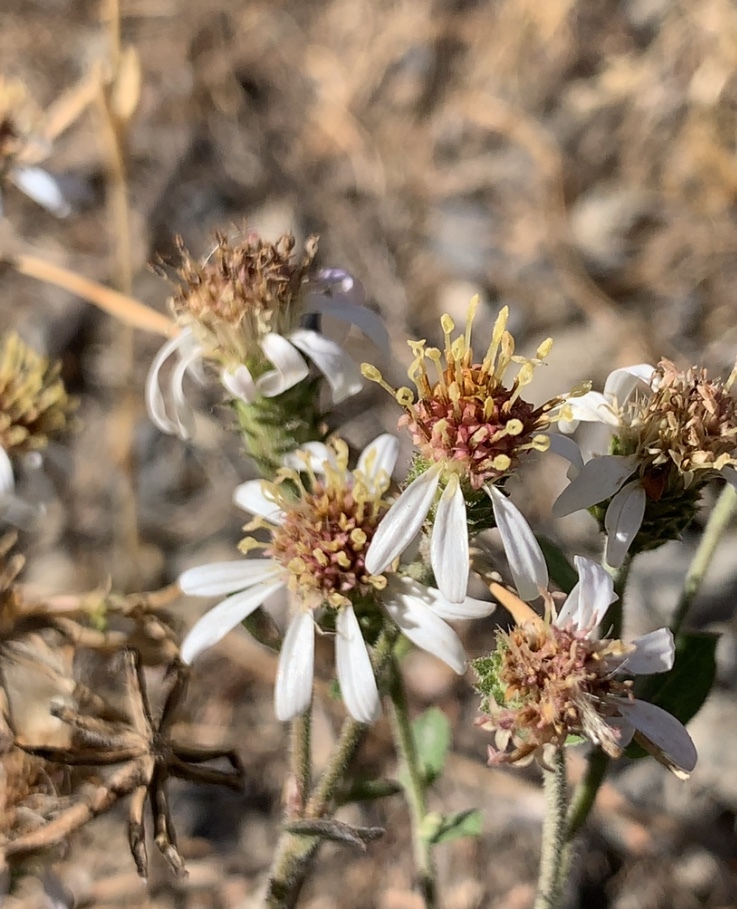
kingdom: Plantae
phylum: Tracheophyta
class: Magnoliopsida
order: Asterales
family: Asteraceae
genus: Eurybia
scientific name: Eurybia radulina
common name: Rough-leaved aster
